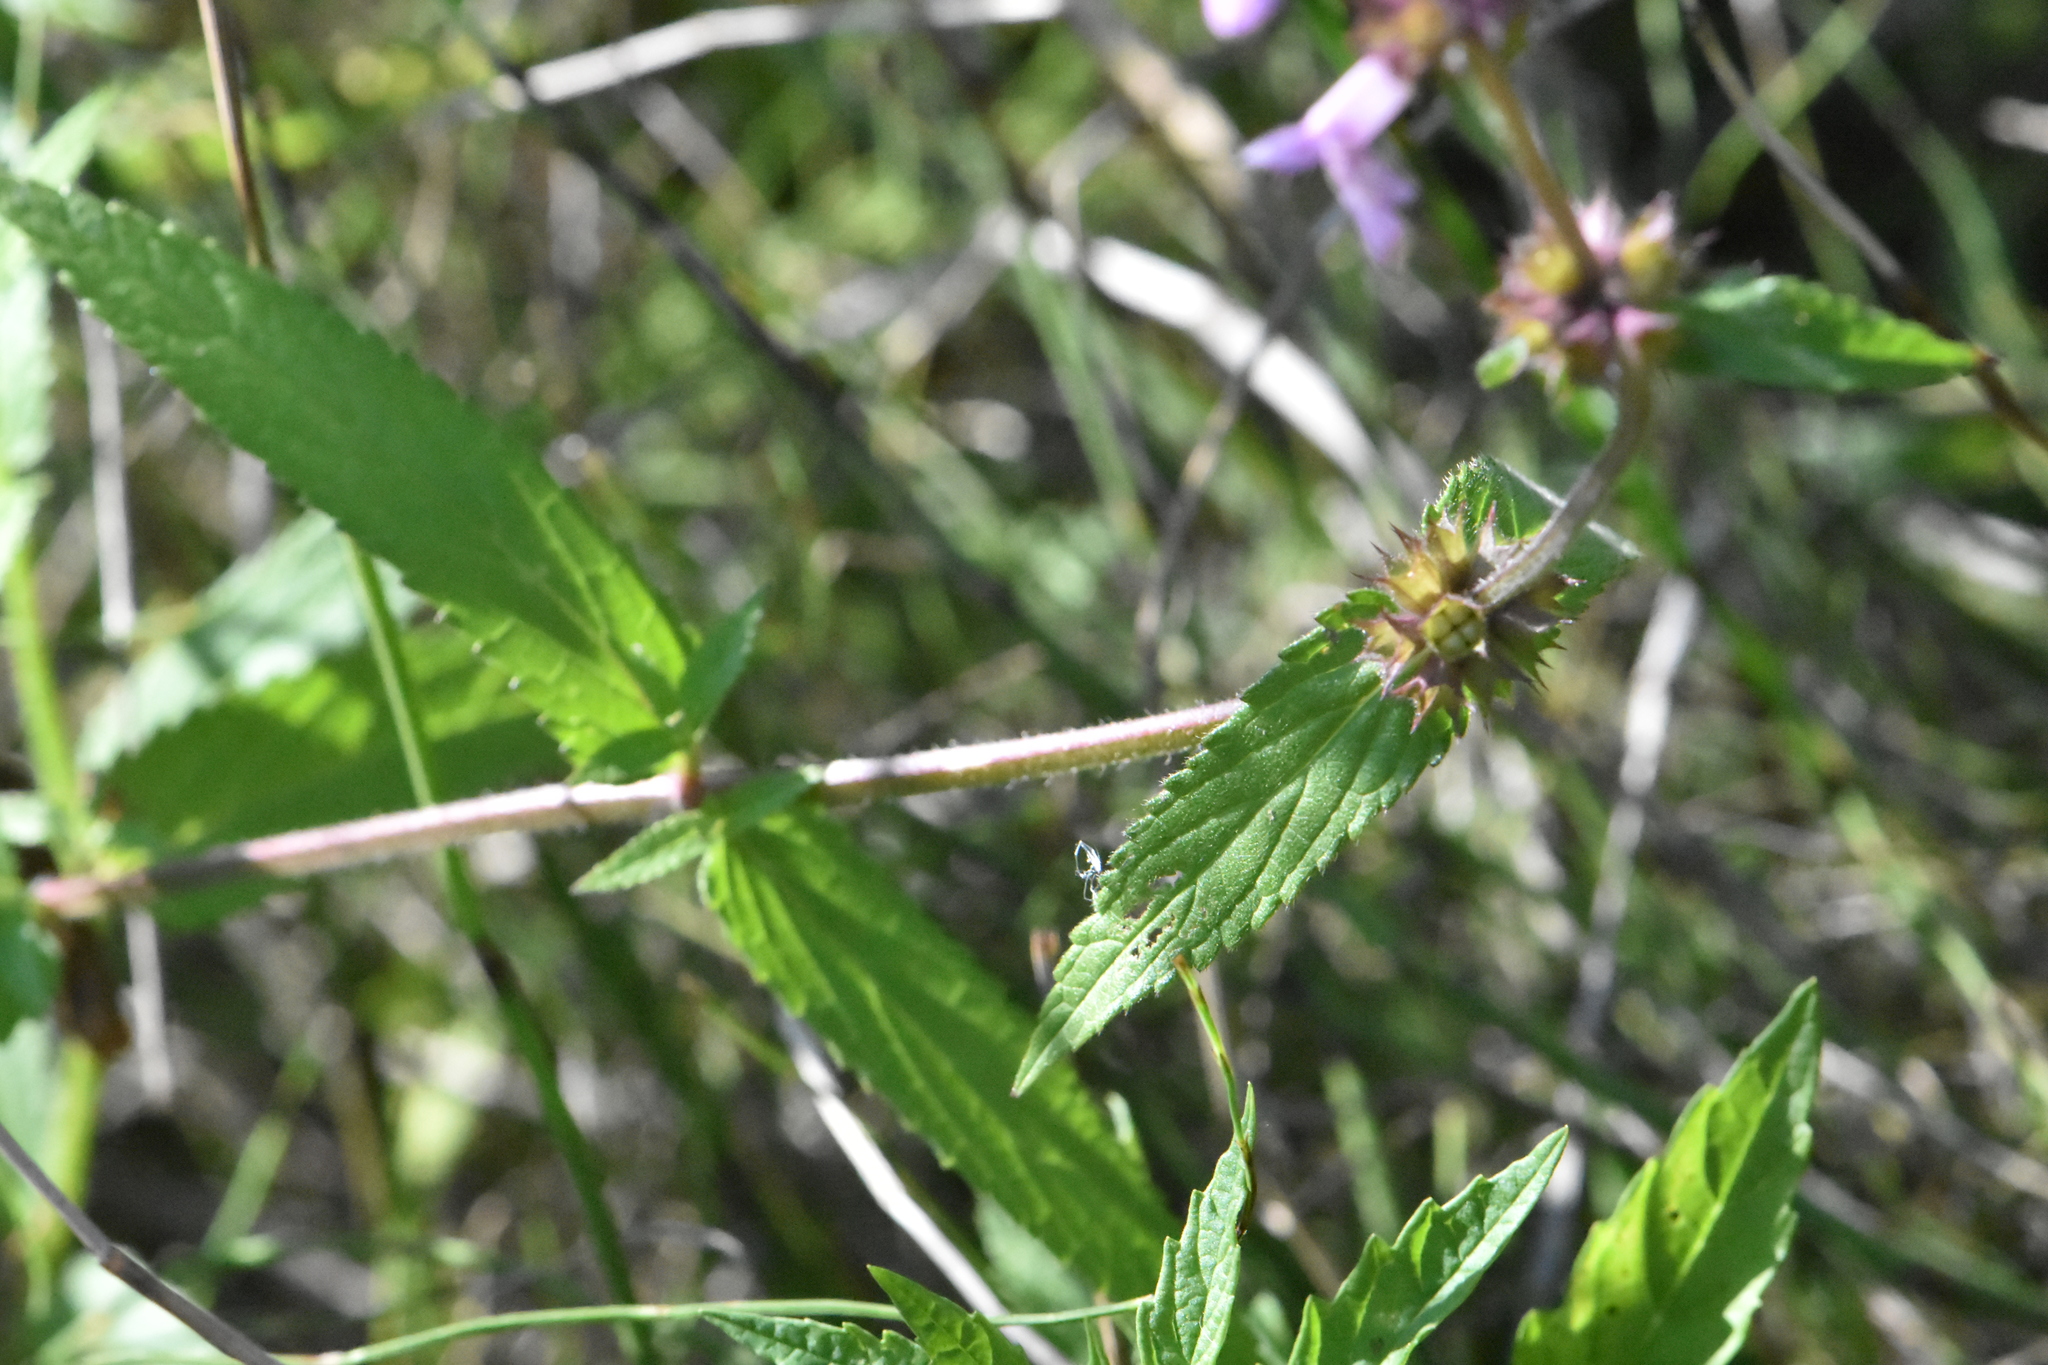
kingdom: Plantae
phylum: Tracheophyta
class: Magnoliopsida
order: Lamiales
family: Lamiaceae
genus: Stachys
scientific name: Stachys palustris
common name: Marsh woundwort
